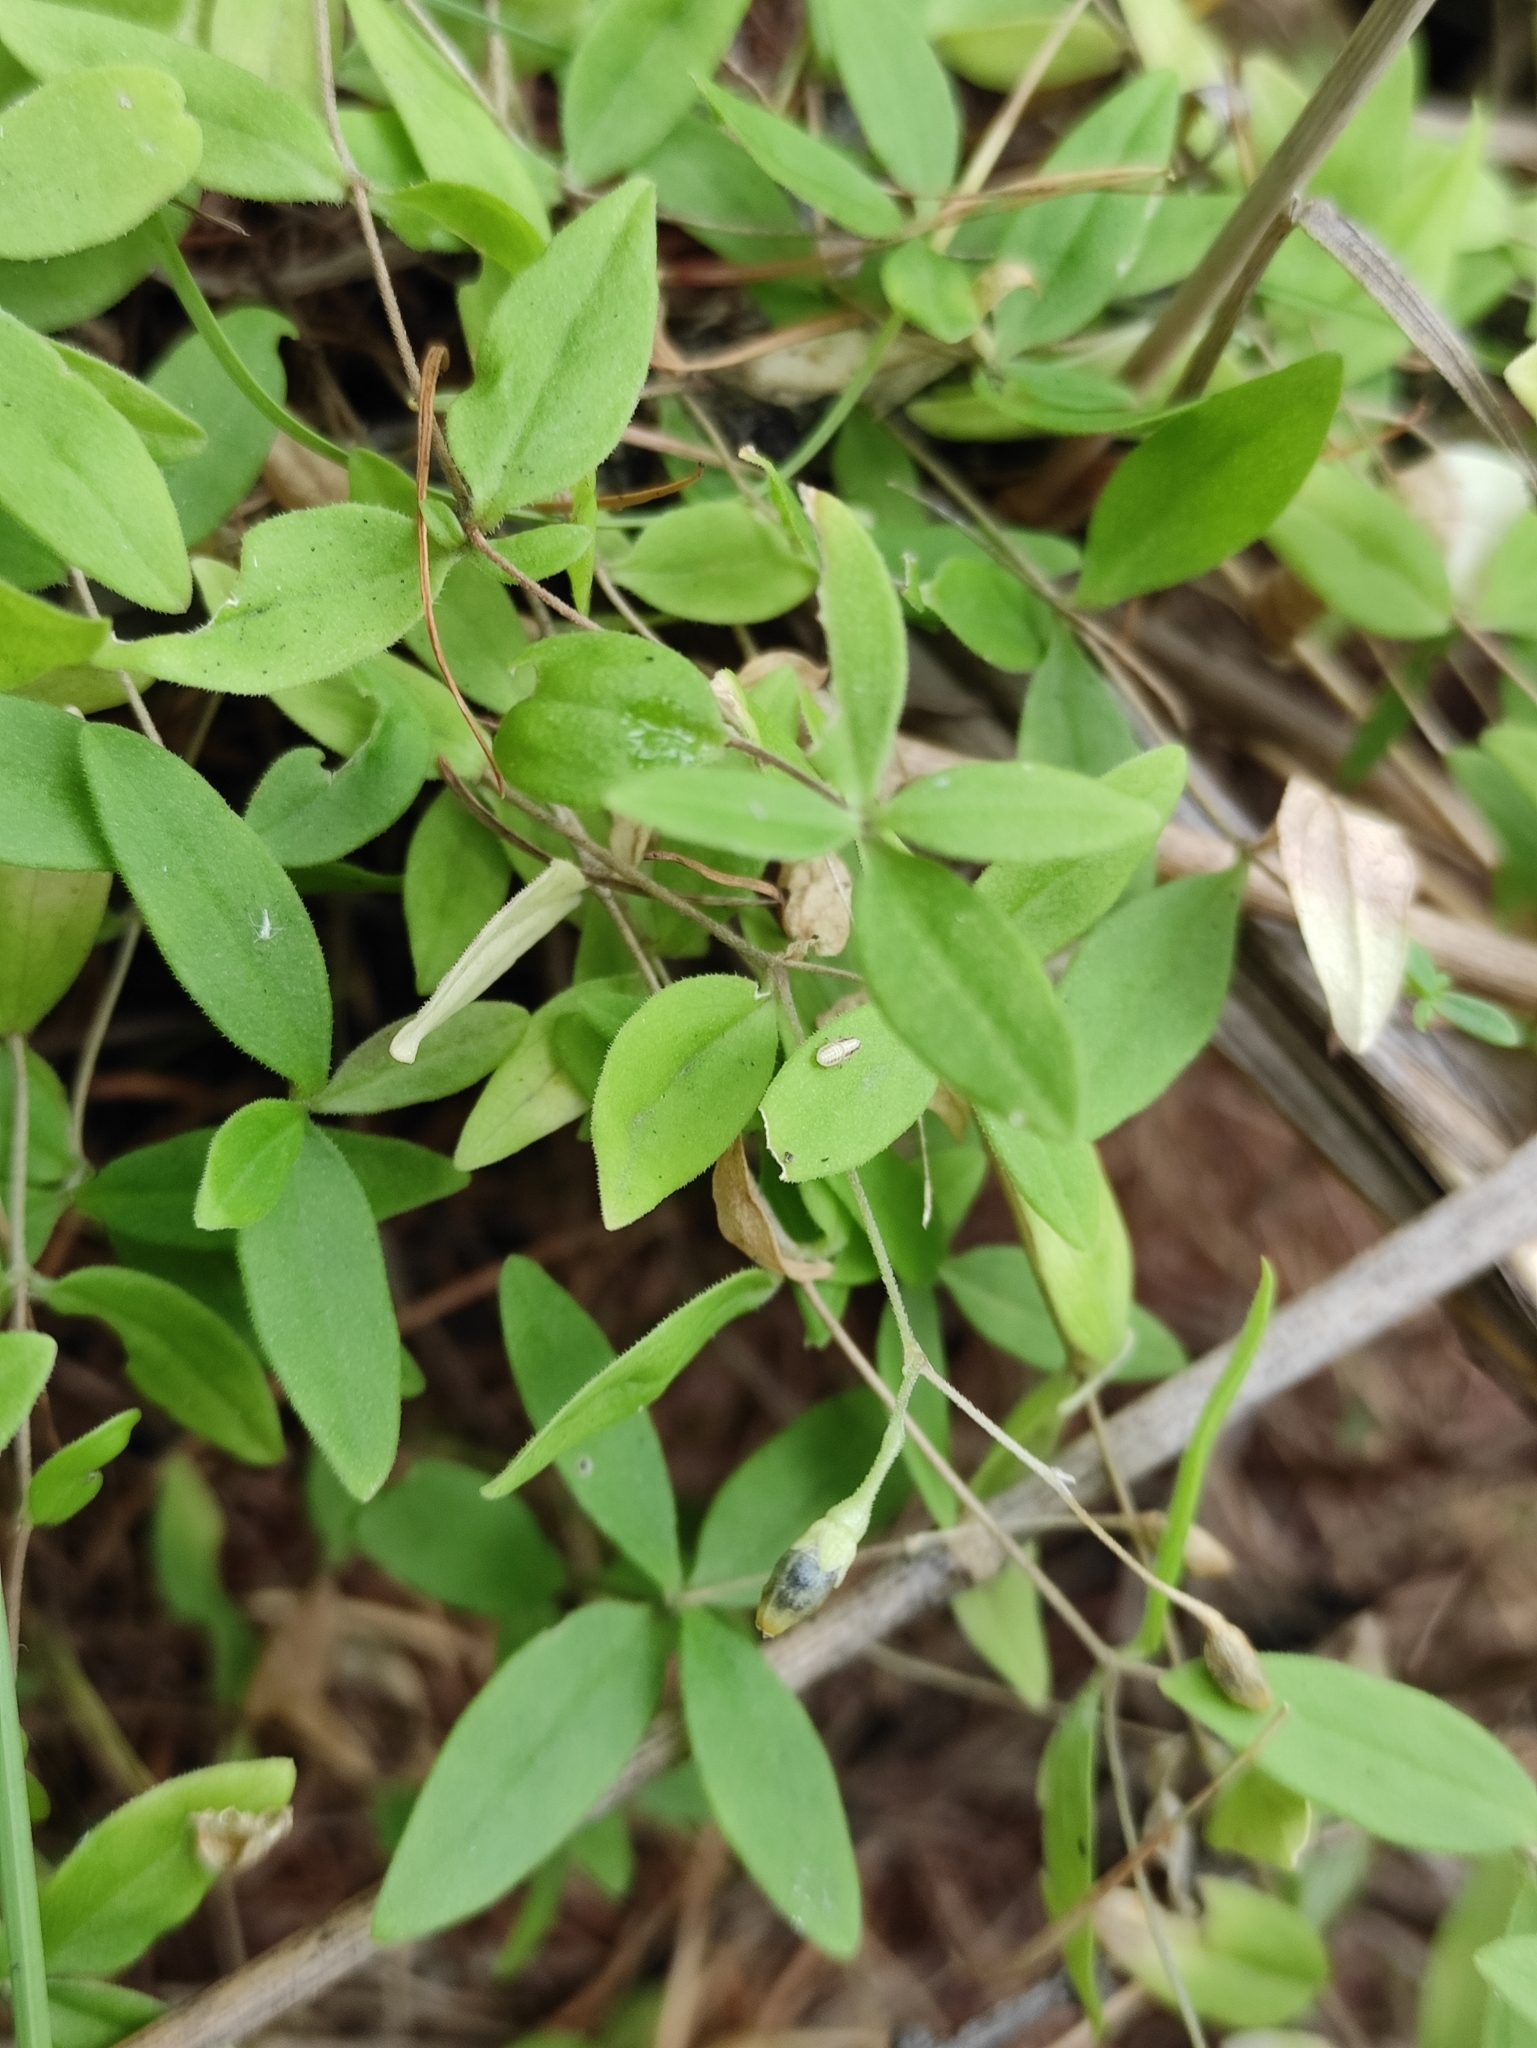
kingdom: Plantae
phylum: Tracheophyta
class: Magnoliopsida
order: Caryophyllales
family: Caryophyllaceae
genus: Moehringia
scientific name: Moehringia lateriflora
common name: Blunt-leaved sandwort
